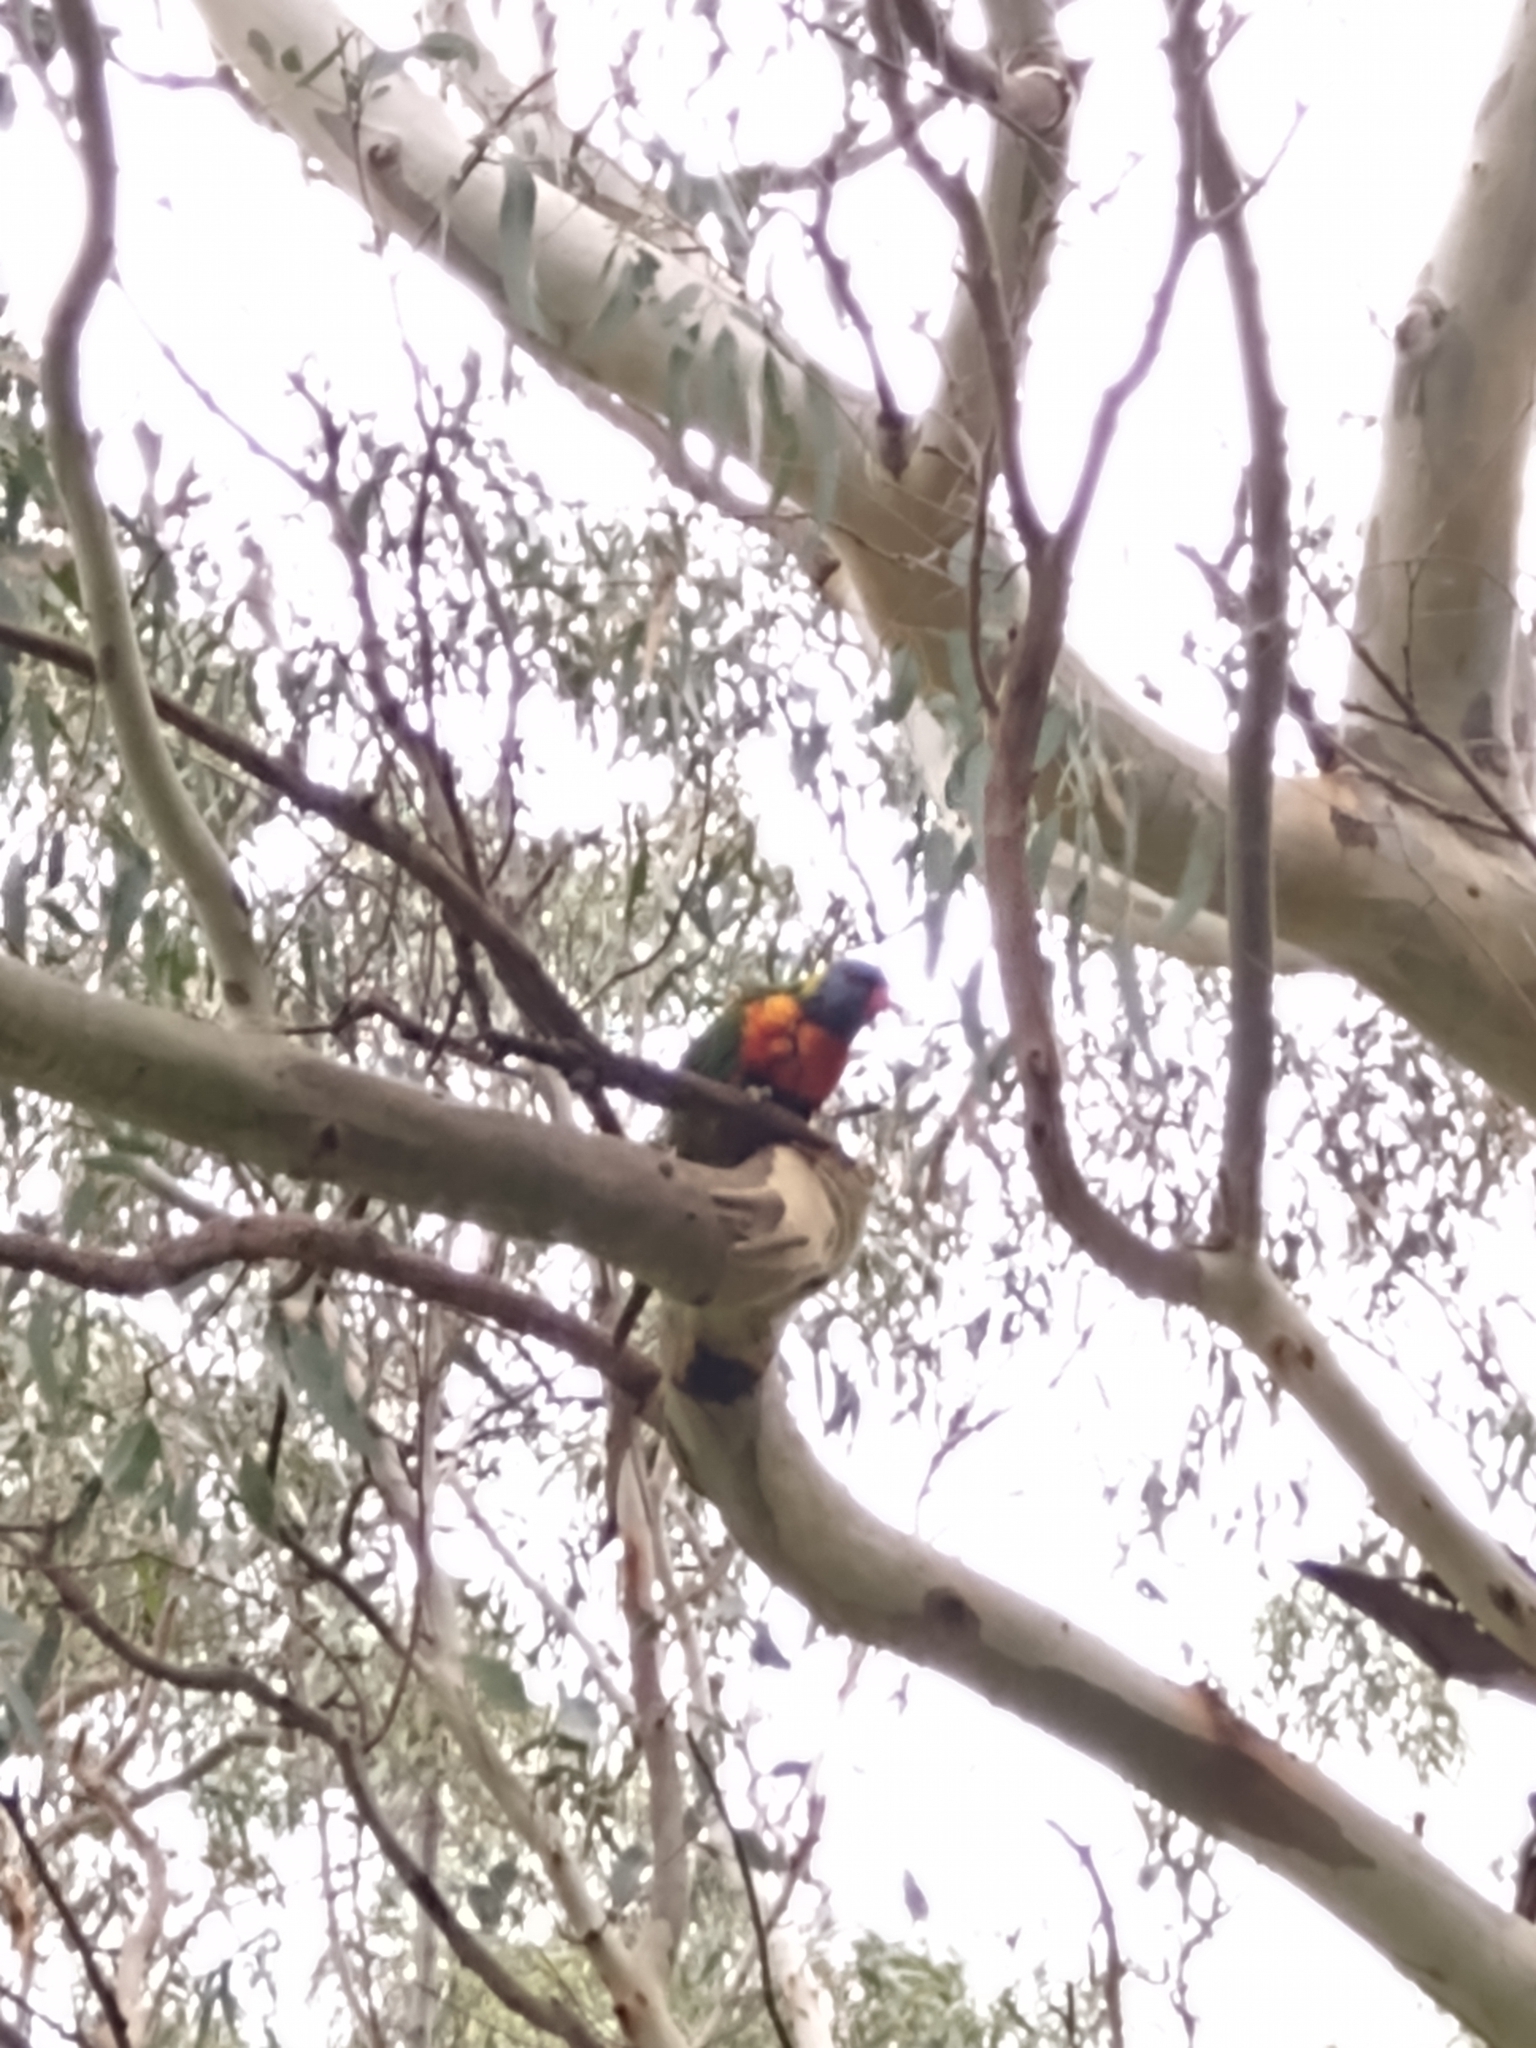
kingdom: Animalia
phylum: Chordata
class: Aves
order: Psittaciformes
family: Psittacidae
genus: Trichoglossus
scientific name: Trichoglossus haematodus
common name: Coconut lorikeet
